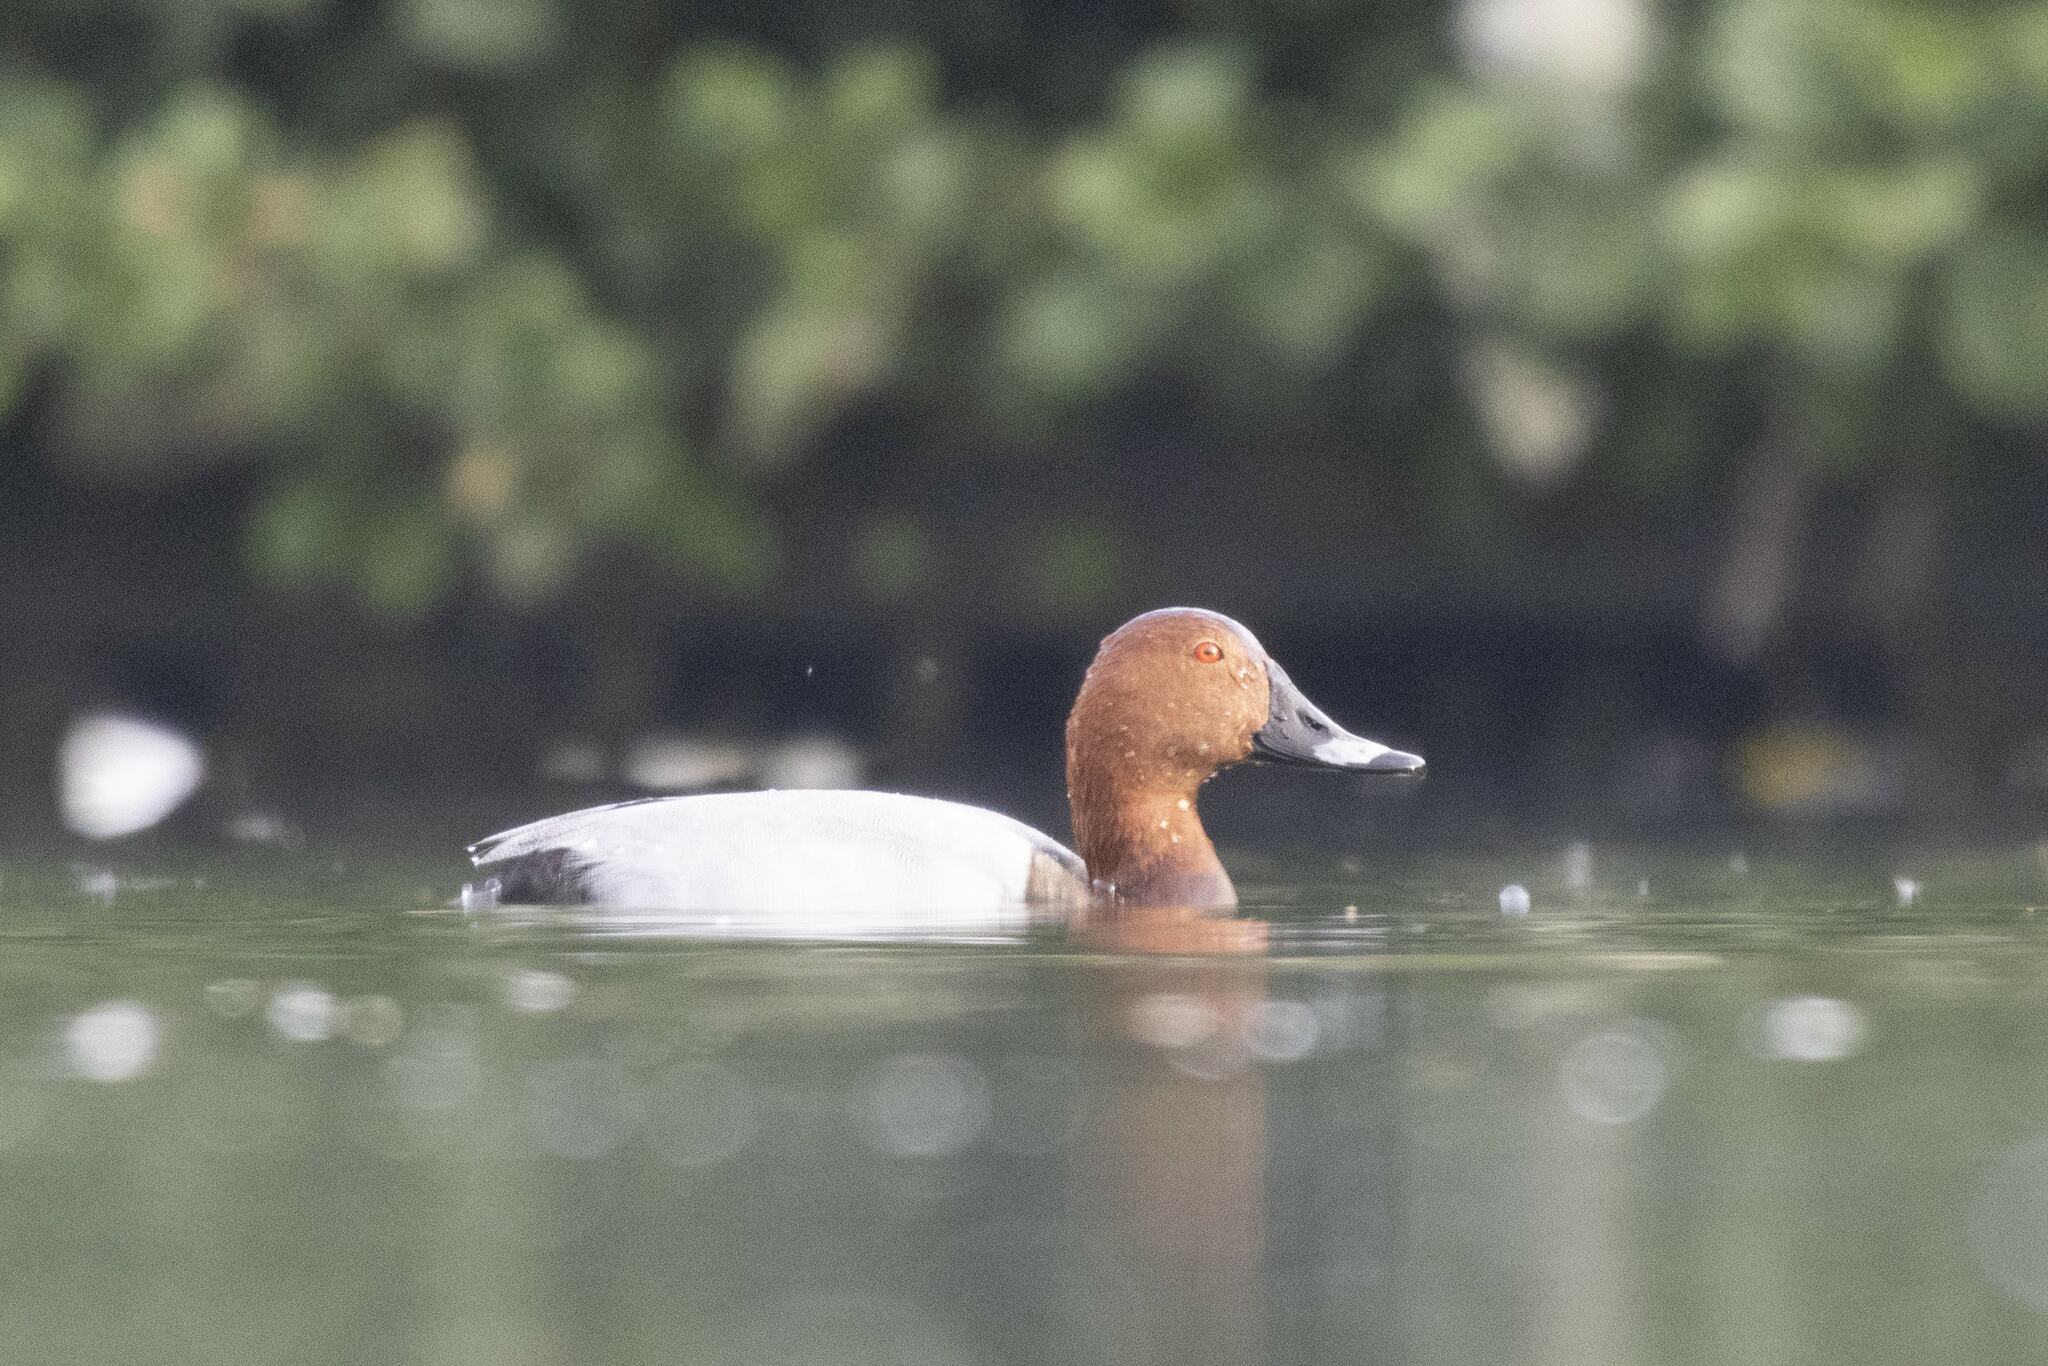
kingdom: Animalia
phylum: Chordata
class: Aves
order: Anseriformes
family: Anatidae
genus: Aythya
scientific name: Aythya ferina
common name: Common pochard
